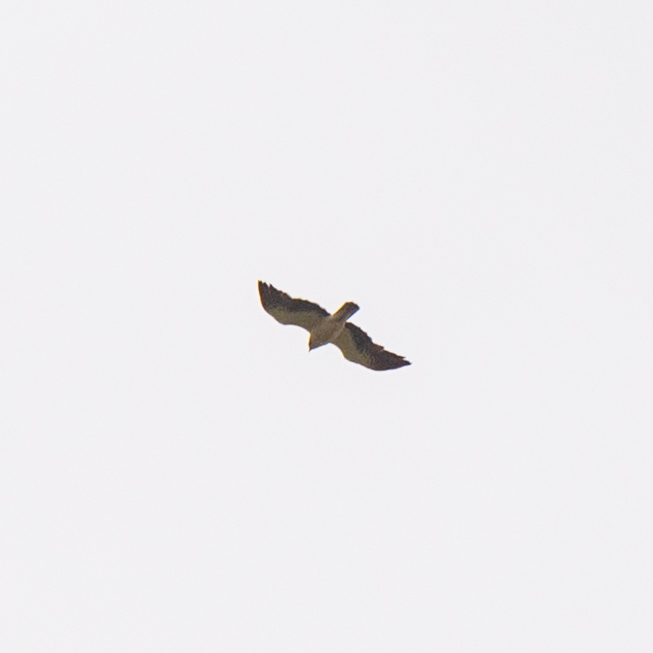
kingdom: Animalia
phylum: Chordata
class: Aves
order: Accipitriformes
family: Accipitridae
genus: Hieraaetus
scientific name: Hieraaetus pennatus
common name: Booted eagle
